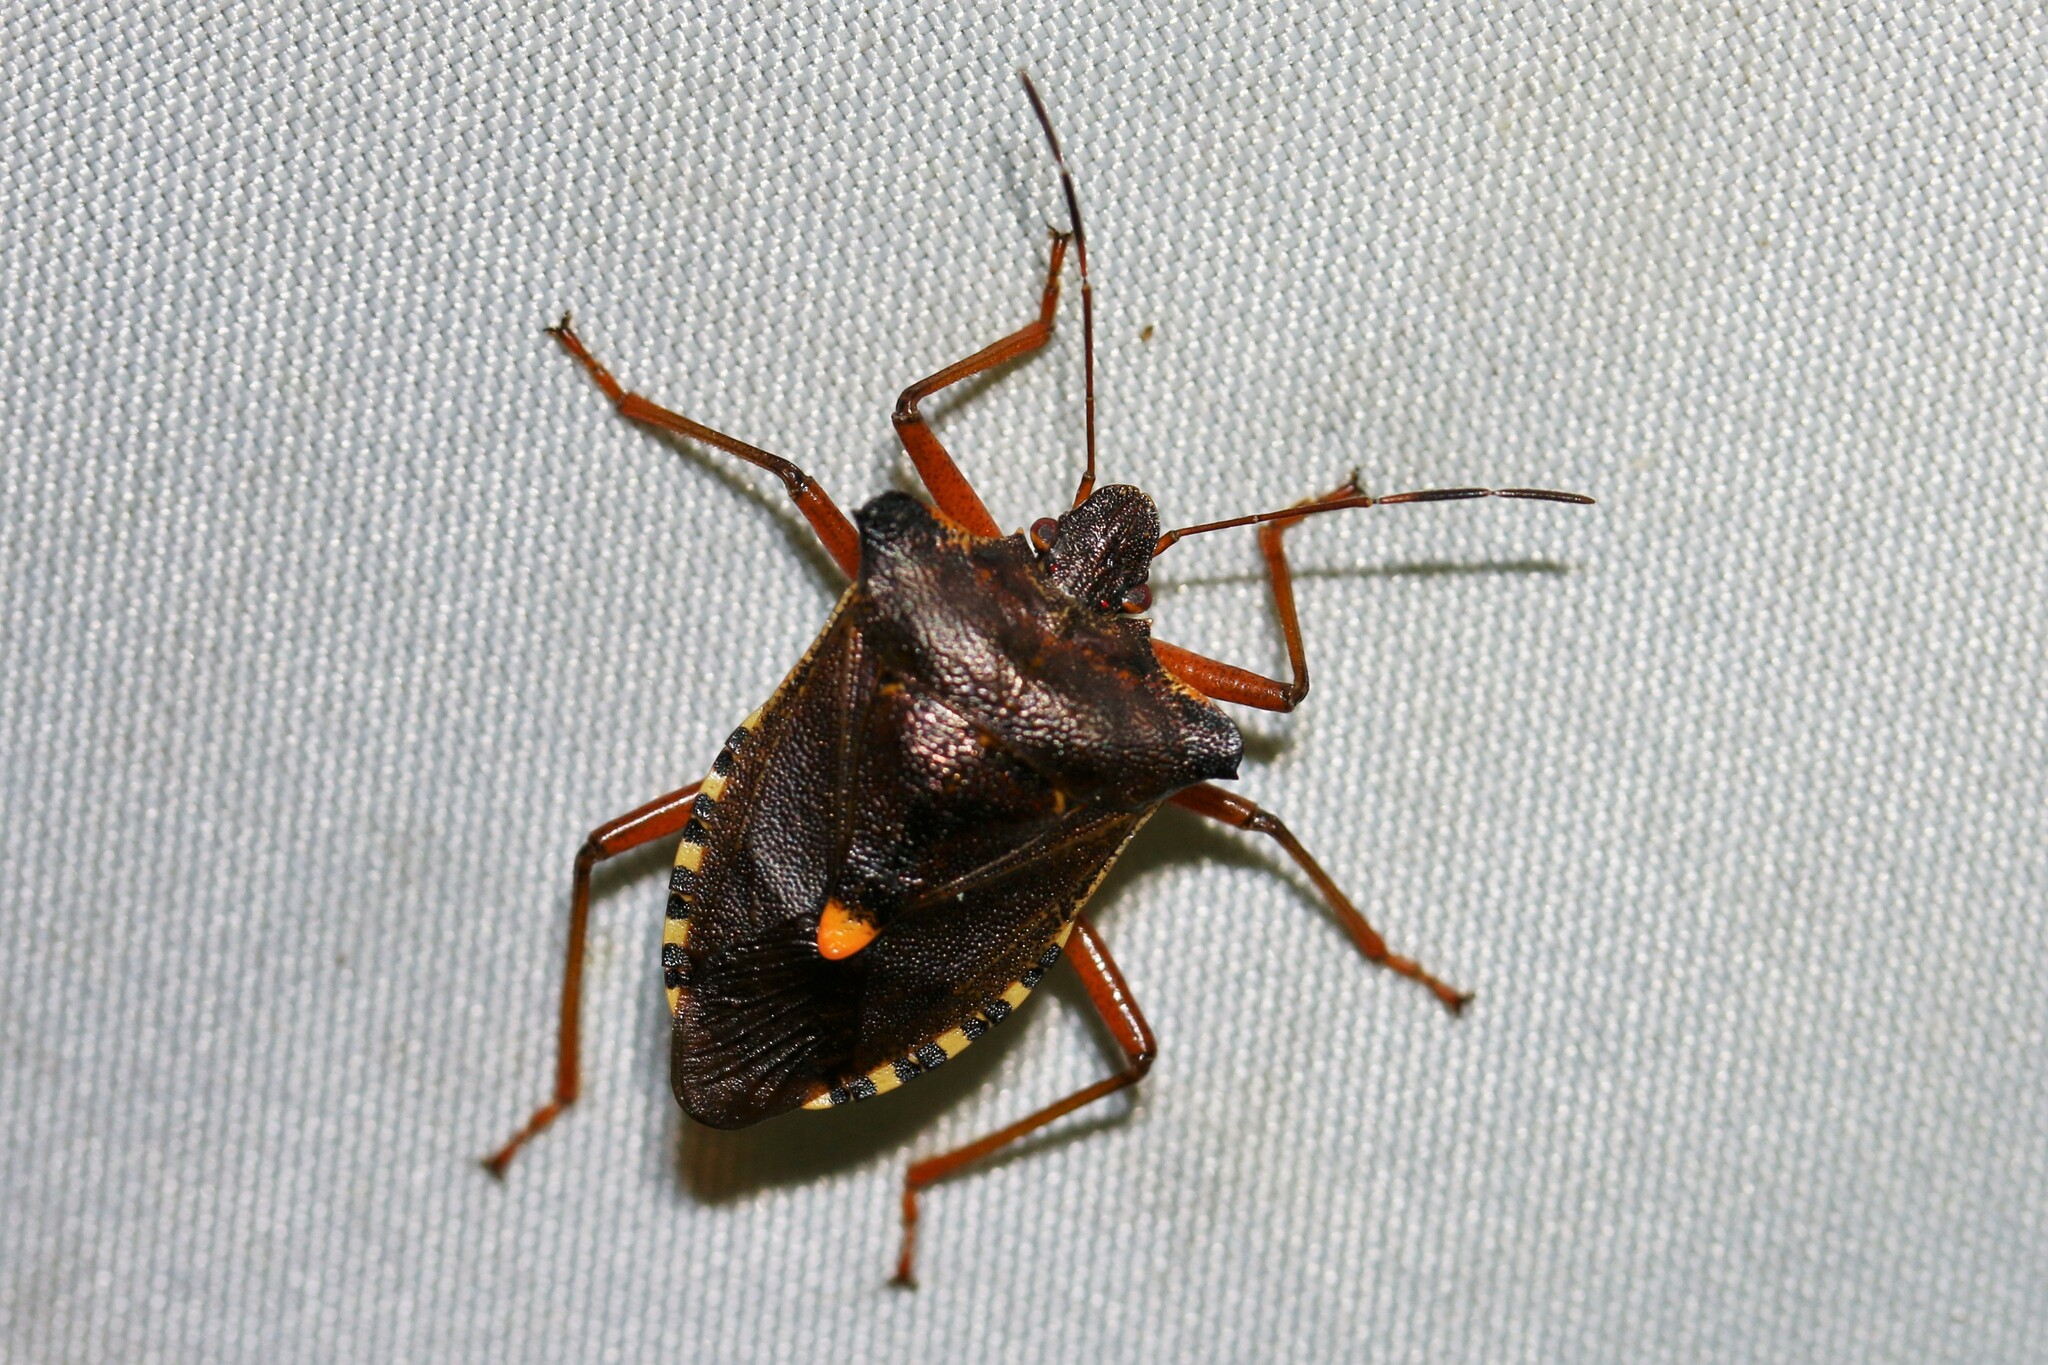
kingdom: Animalia
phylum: Arthropoda
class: Insecta
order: Hemiptera
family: Pentatomidae
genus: Pentatoma
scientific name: Pentatoma rufipes
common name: Forest bug
